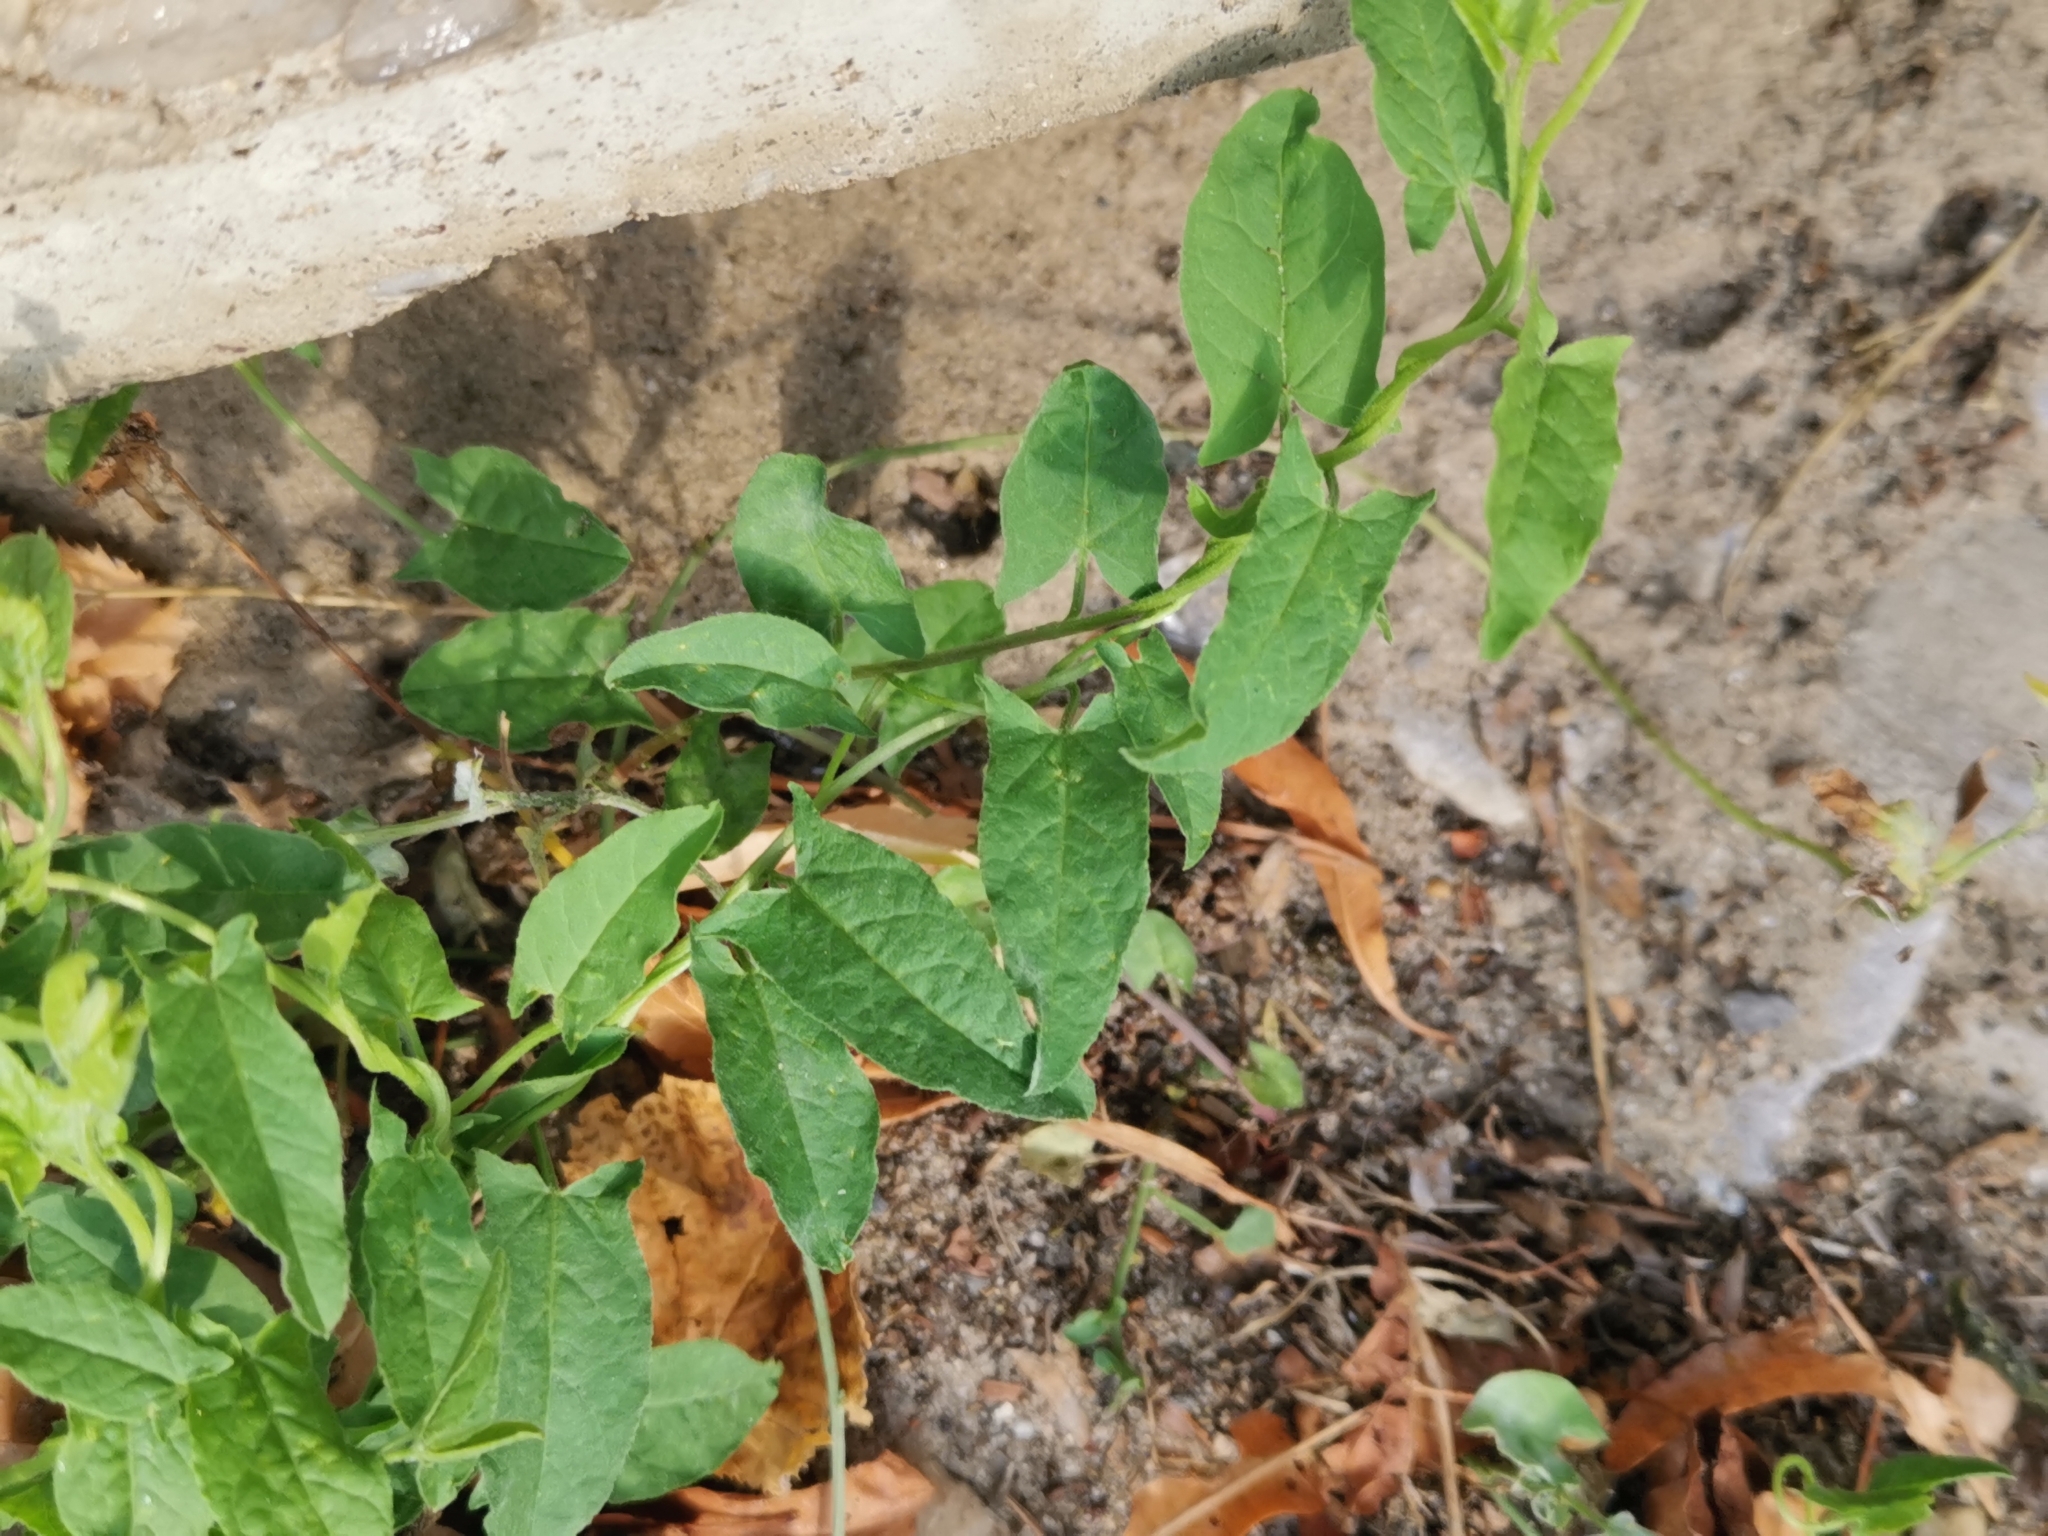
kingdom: Plantae
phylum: Tracheophyta
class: Magnoliopsida
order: Solanales
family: Convolvulaceae
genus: Convolvulus
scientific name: Convolvulus arvensis
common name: Field bindweed
